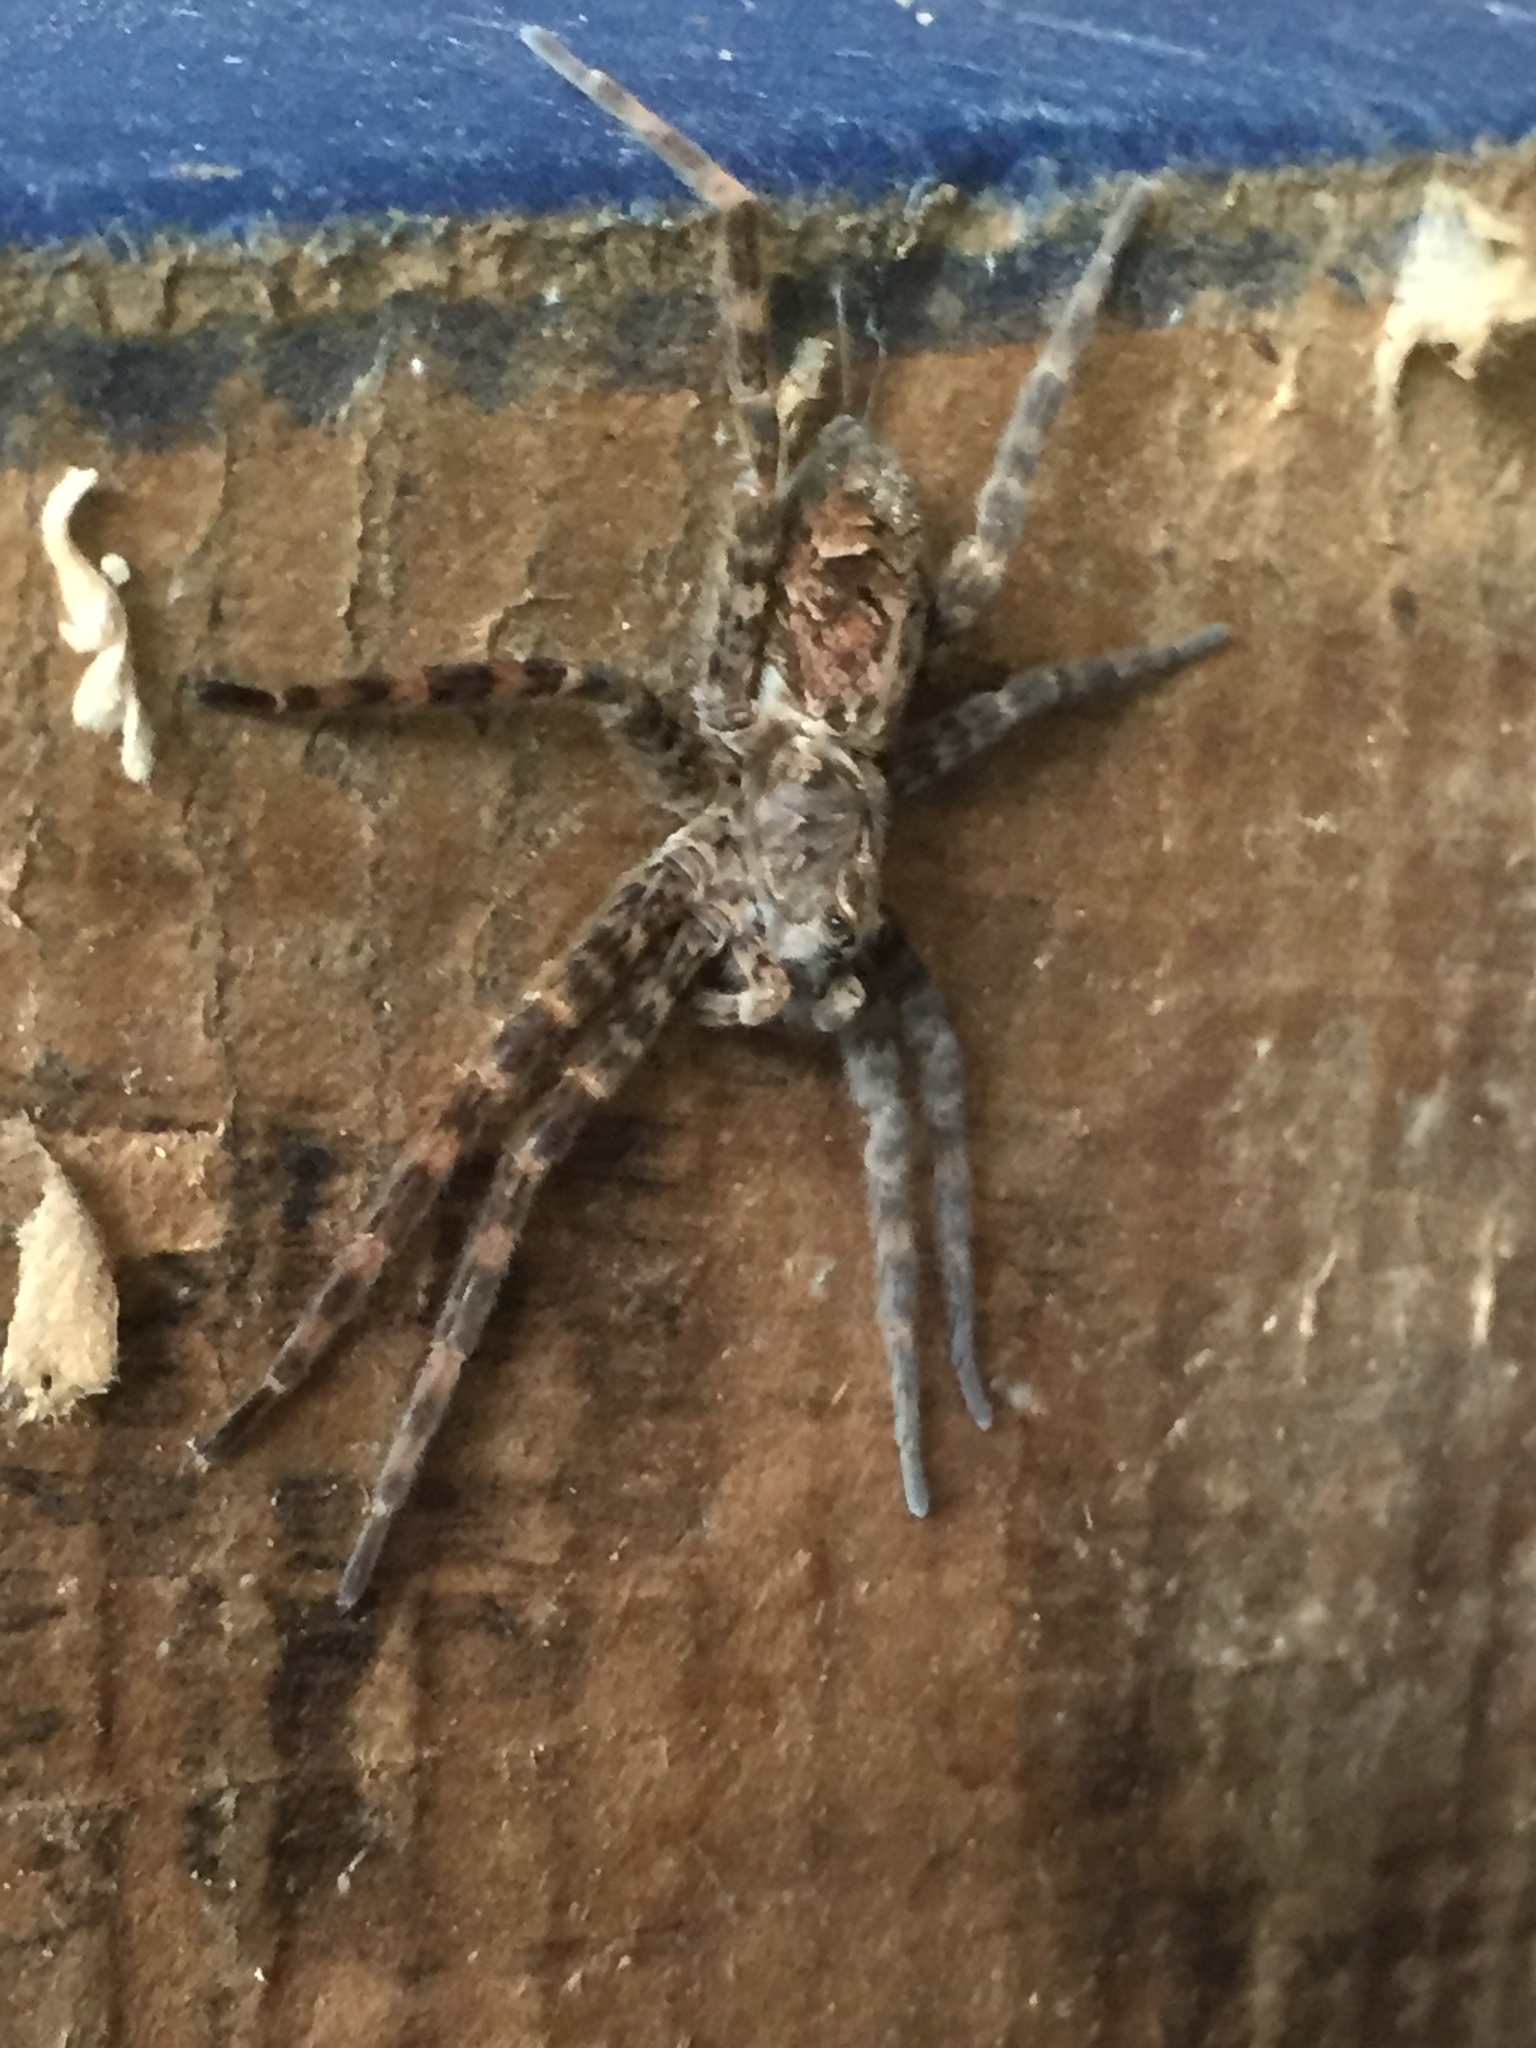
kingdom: Animalia
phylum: Arthropoda
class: Arachnida
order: Araneae
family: Pisauridae
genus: Dolomedes
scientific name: Dolomedes tenebrosus
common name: Dark fishing spider
